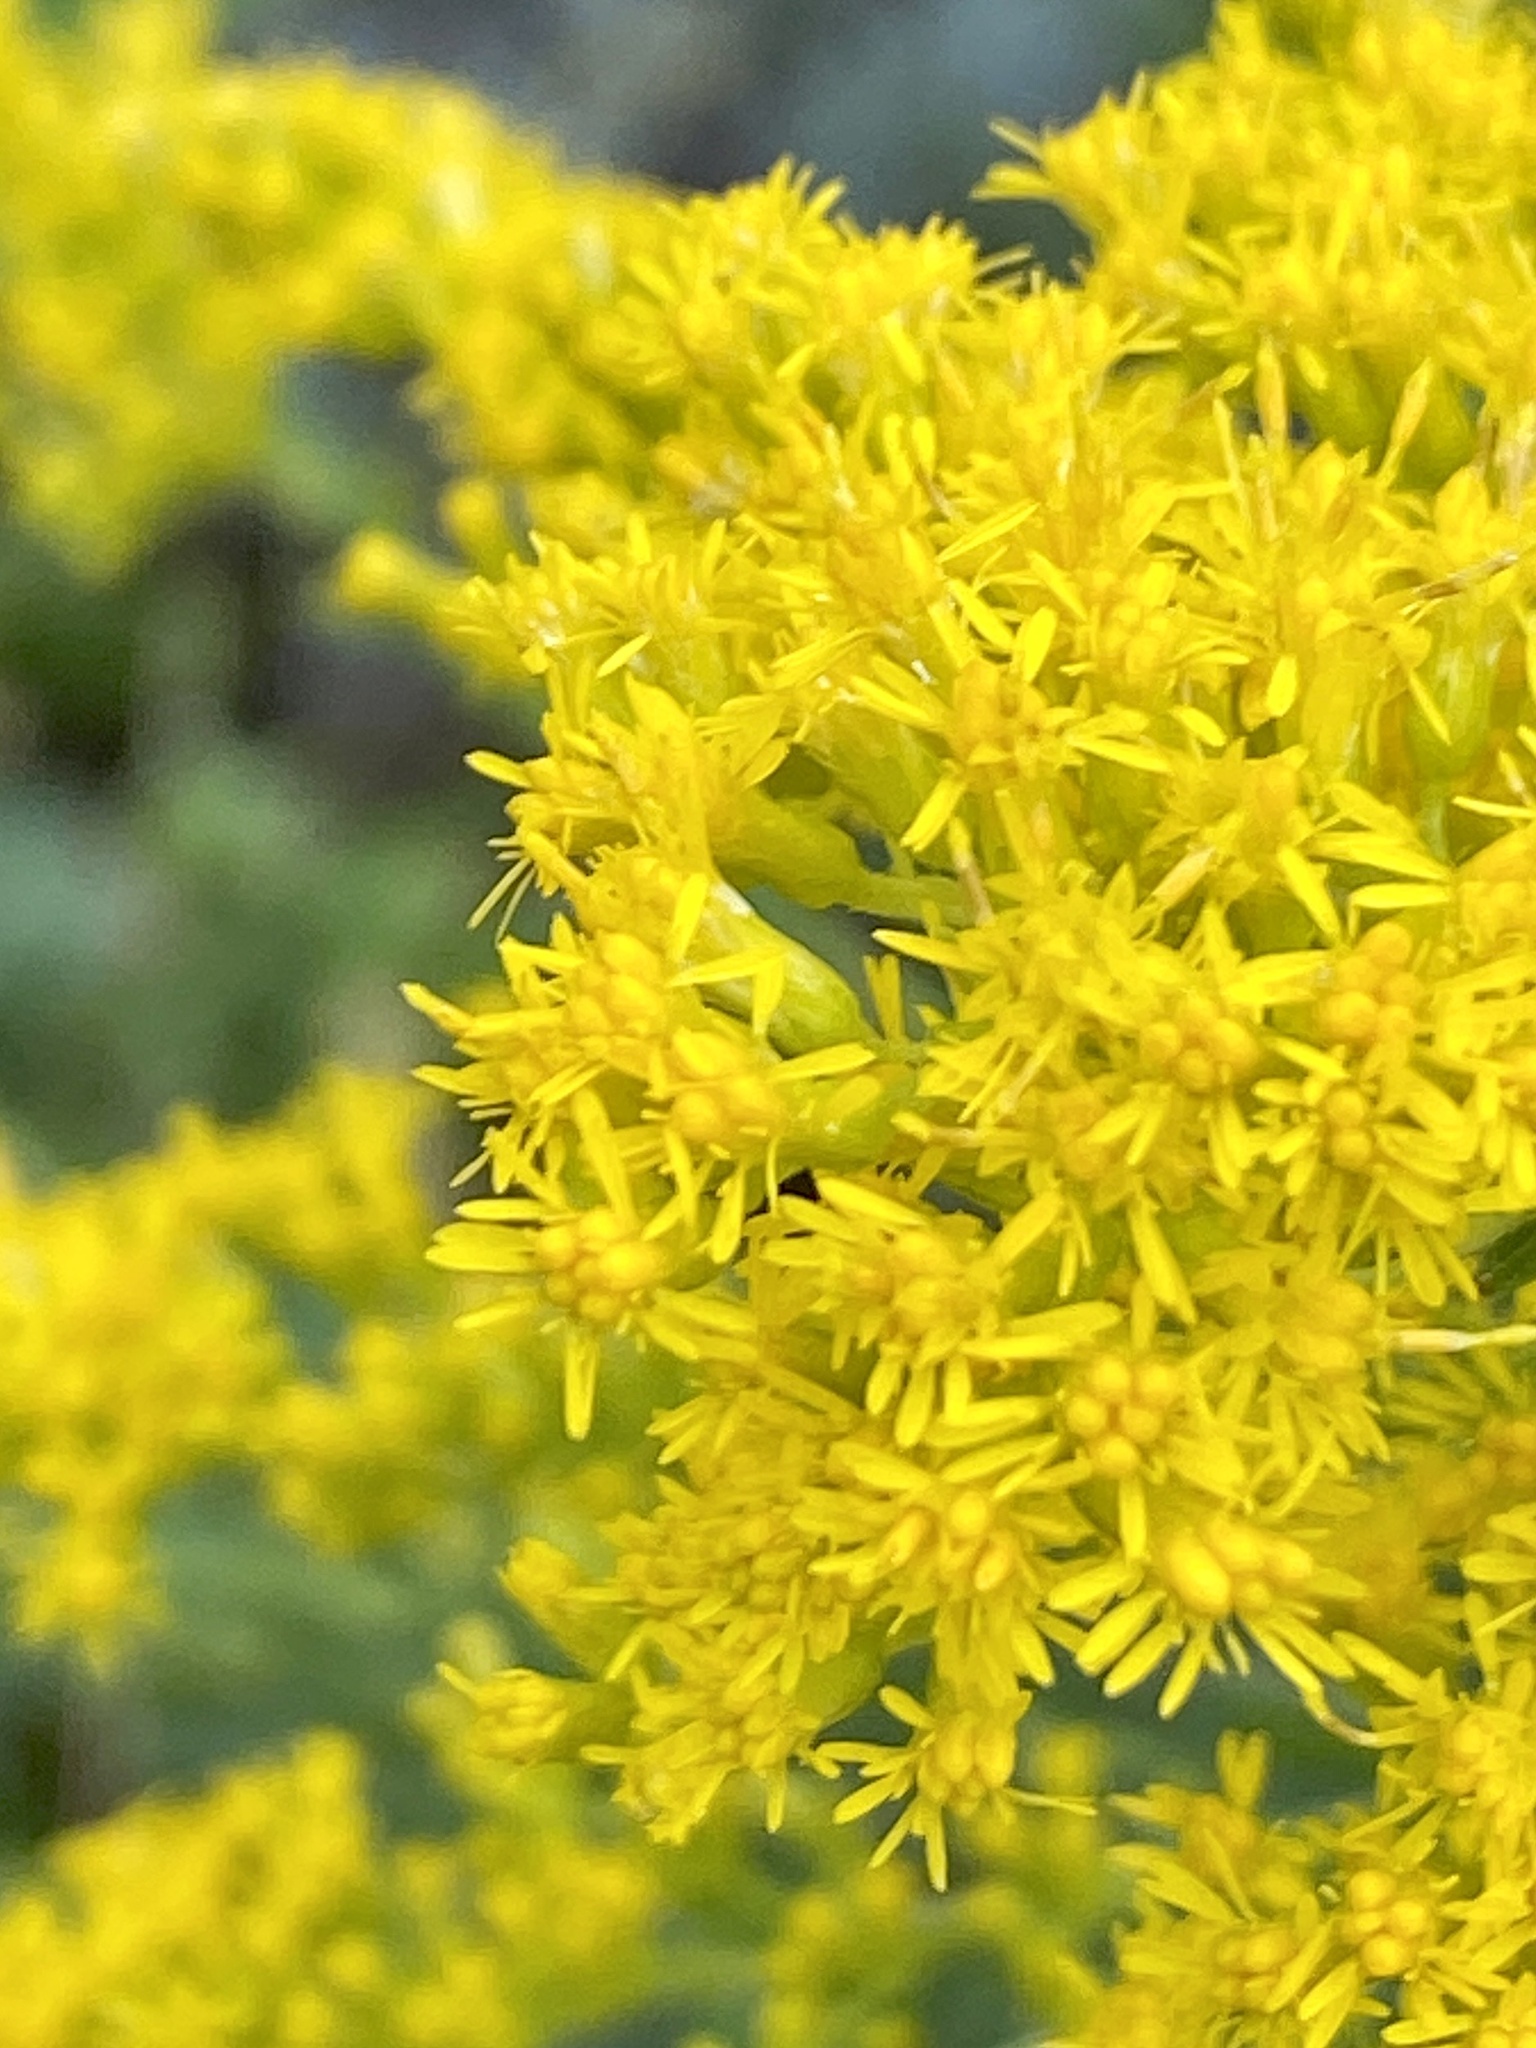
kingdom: Plantae
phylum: Tracheophyta
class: Magnoliopsida
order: Asterales
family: Asteraceae
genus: Solidago
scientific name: Solidago altissima
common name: Late goldenrod
